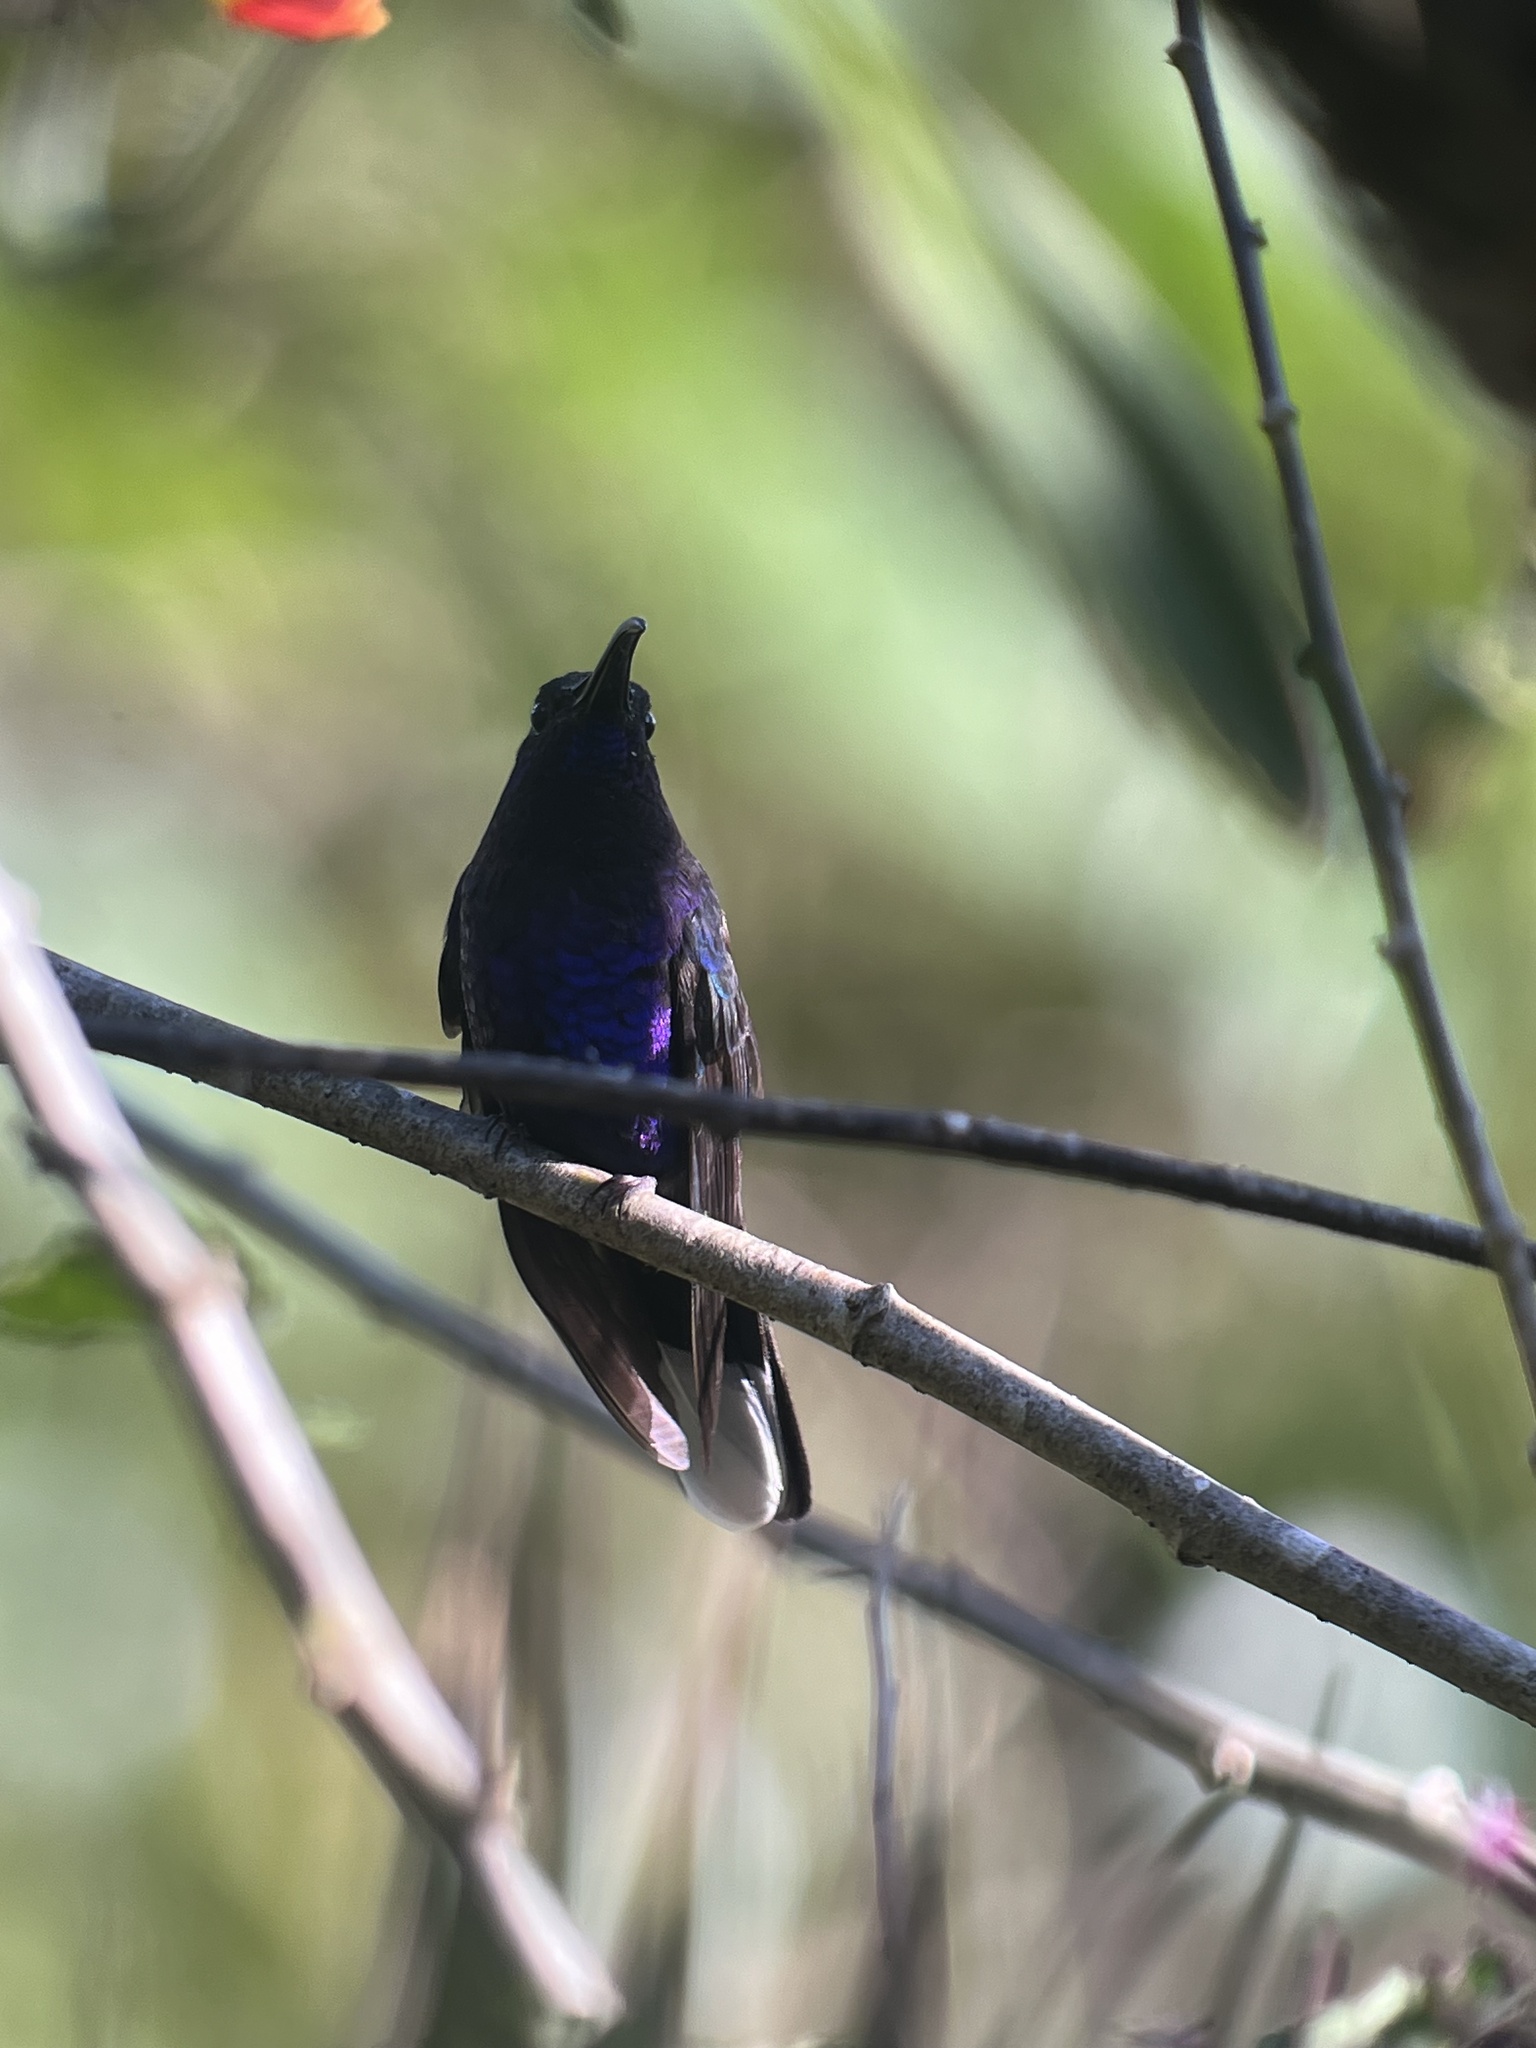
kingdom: Animalia
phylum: Chordata
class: Aves
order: Apodiformes
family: Trochilidae
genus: Campylopterus
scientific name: Campylopterus hemileucurus
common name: Violet sabrewing
